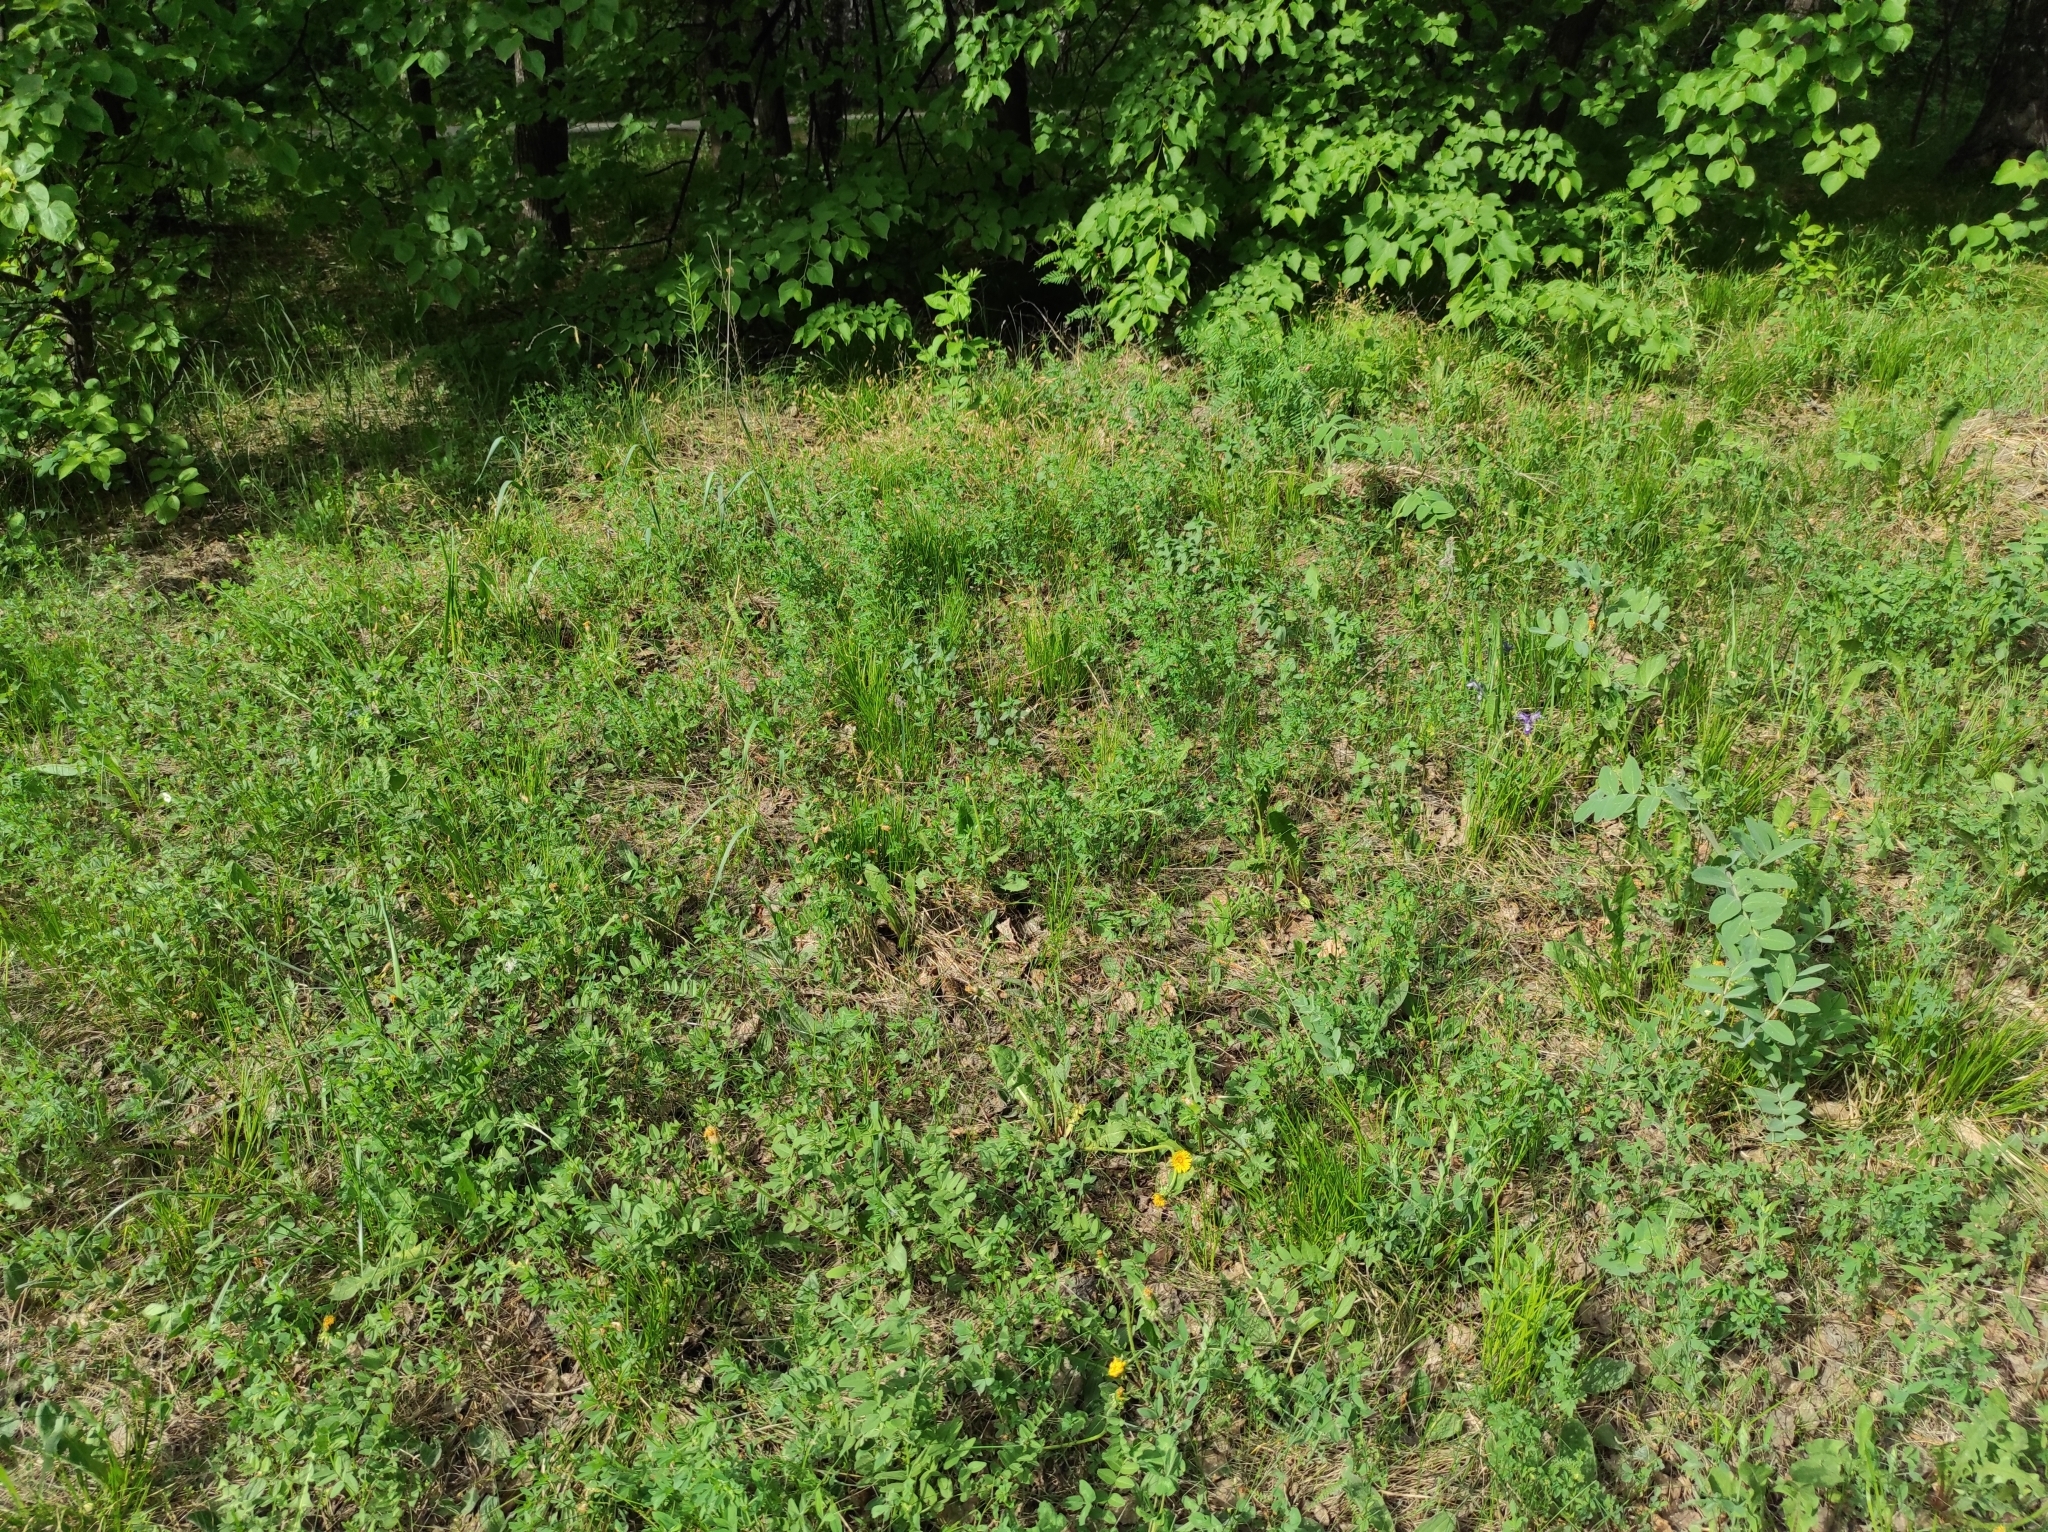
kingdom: Plantae
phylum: Tracheophyta
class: Liliopsida
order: Asparagales
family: Iridaceae
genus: Iris
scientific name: Iris ruthenica
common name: Purple-bract iris
